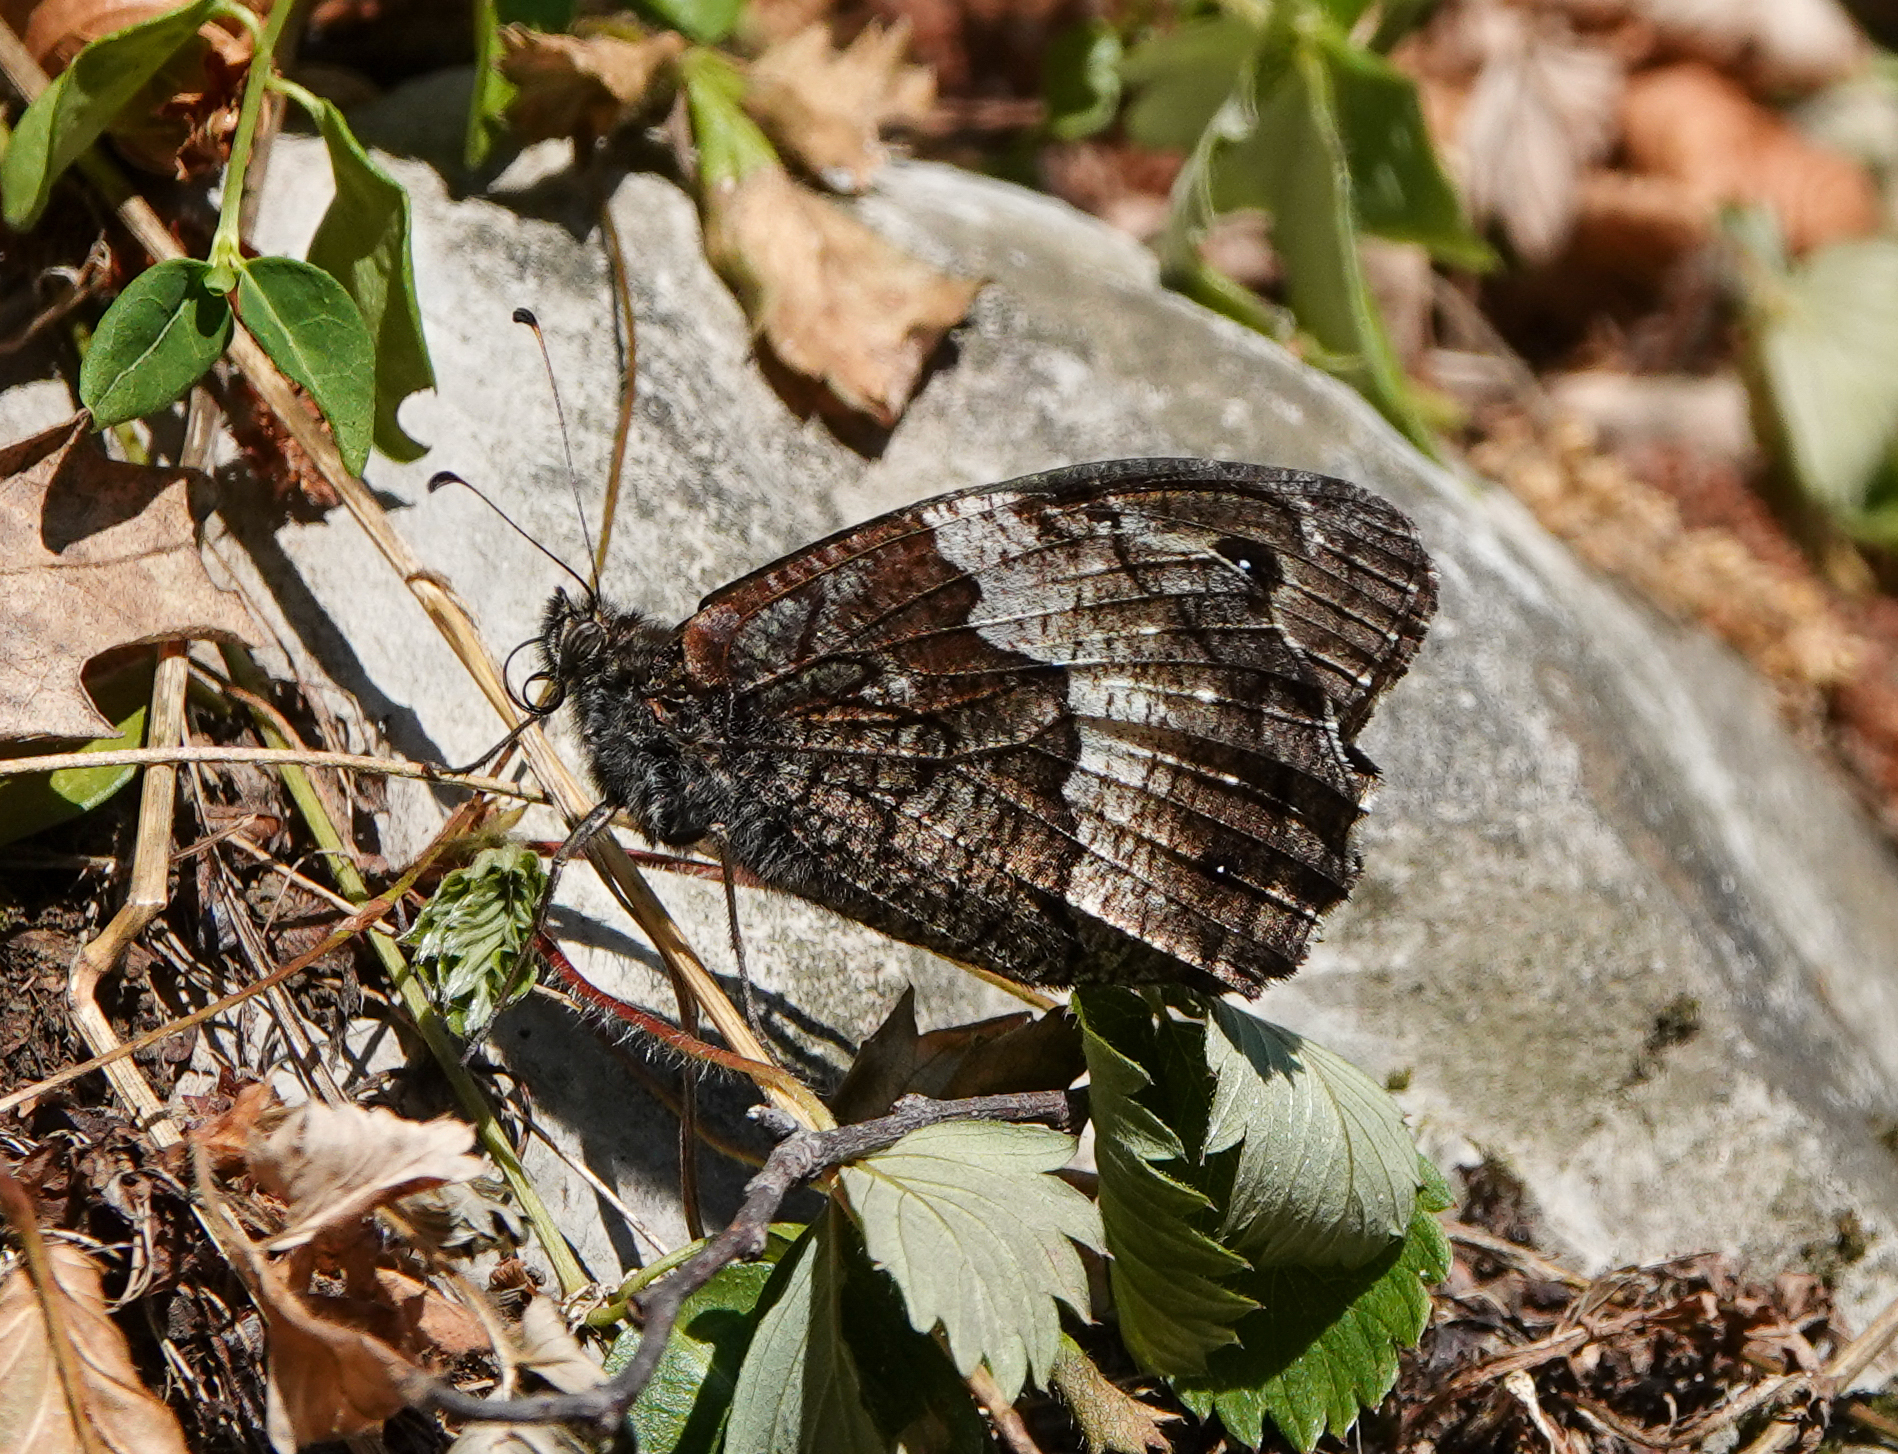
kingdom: Animalia
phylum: Arthropoda
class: Insecta
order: Lepidoptera
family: Nymphalidae
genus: Hipparchia
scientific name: Hipparchia fagi
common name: Woodland grayling
